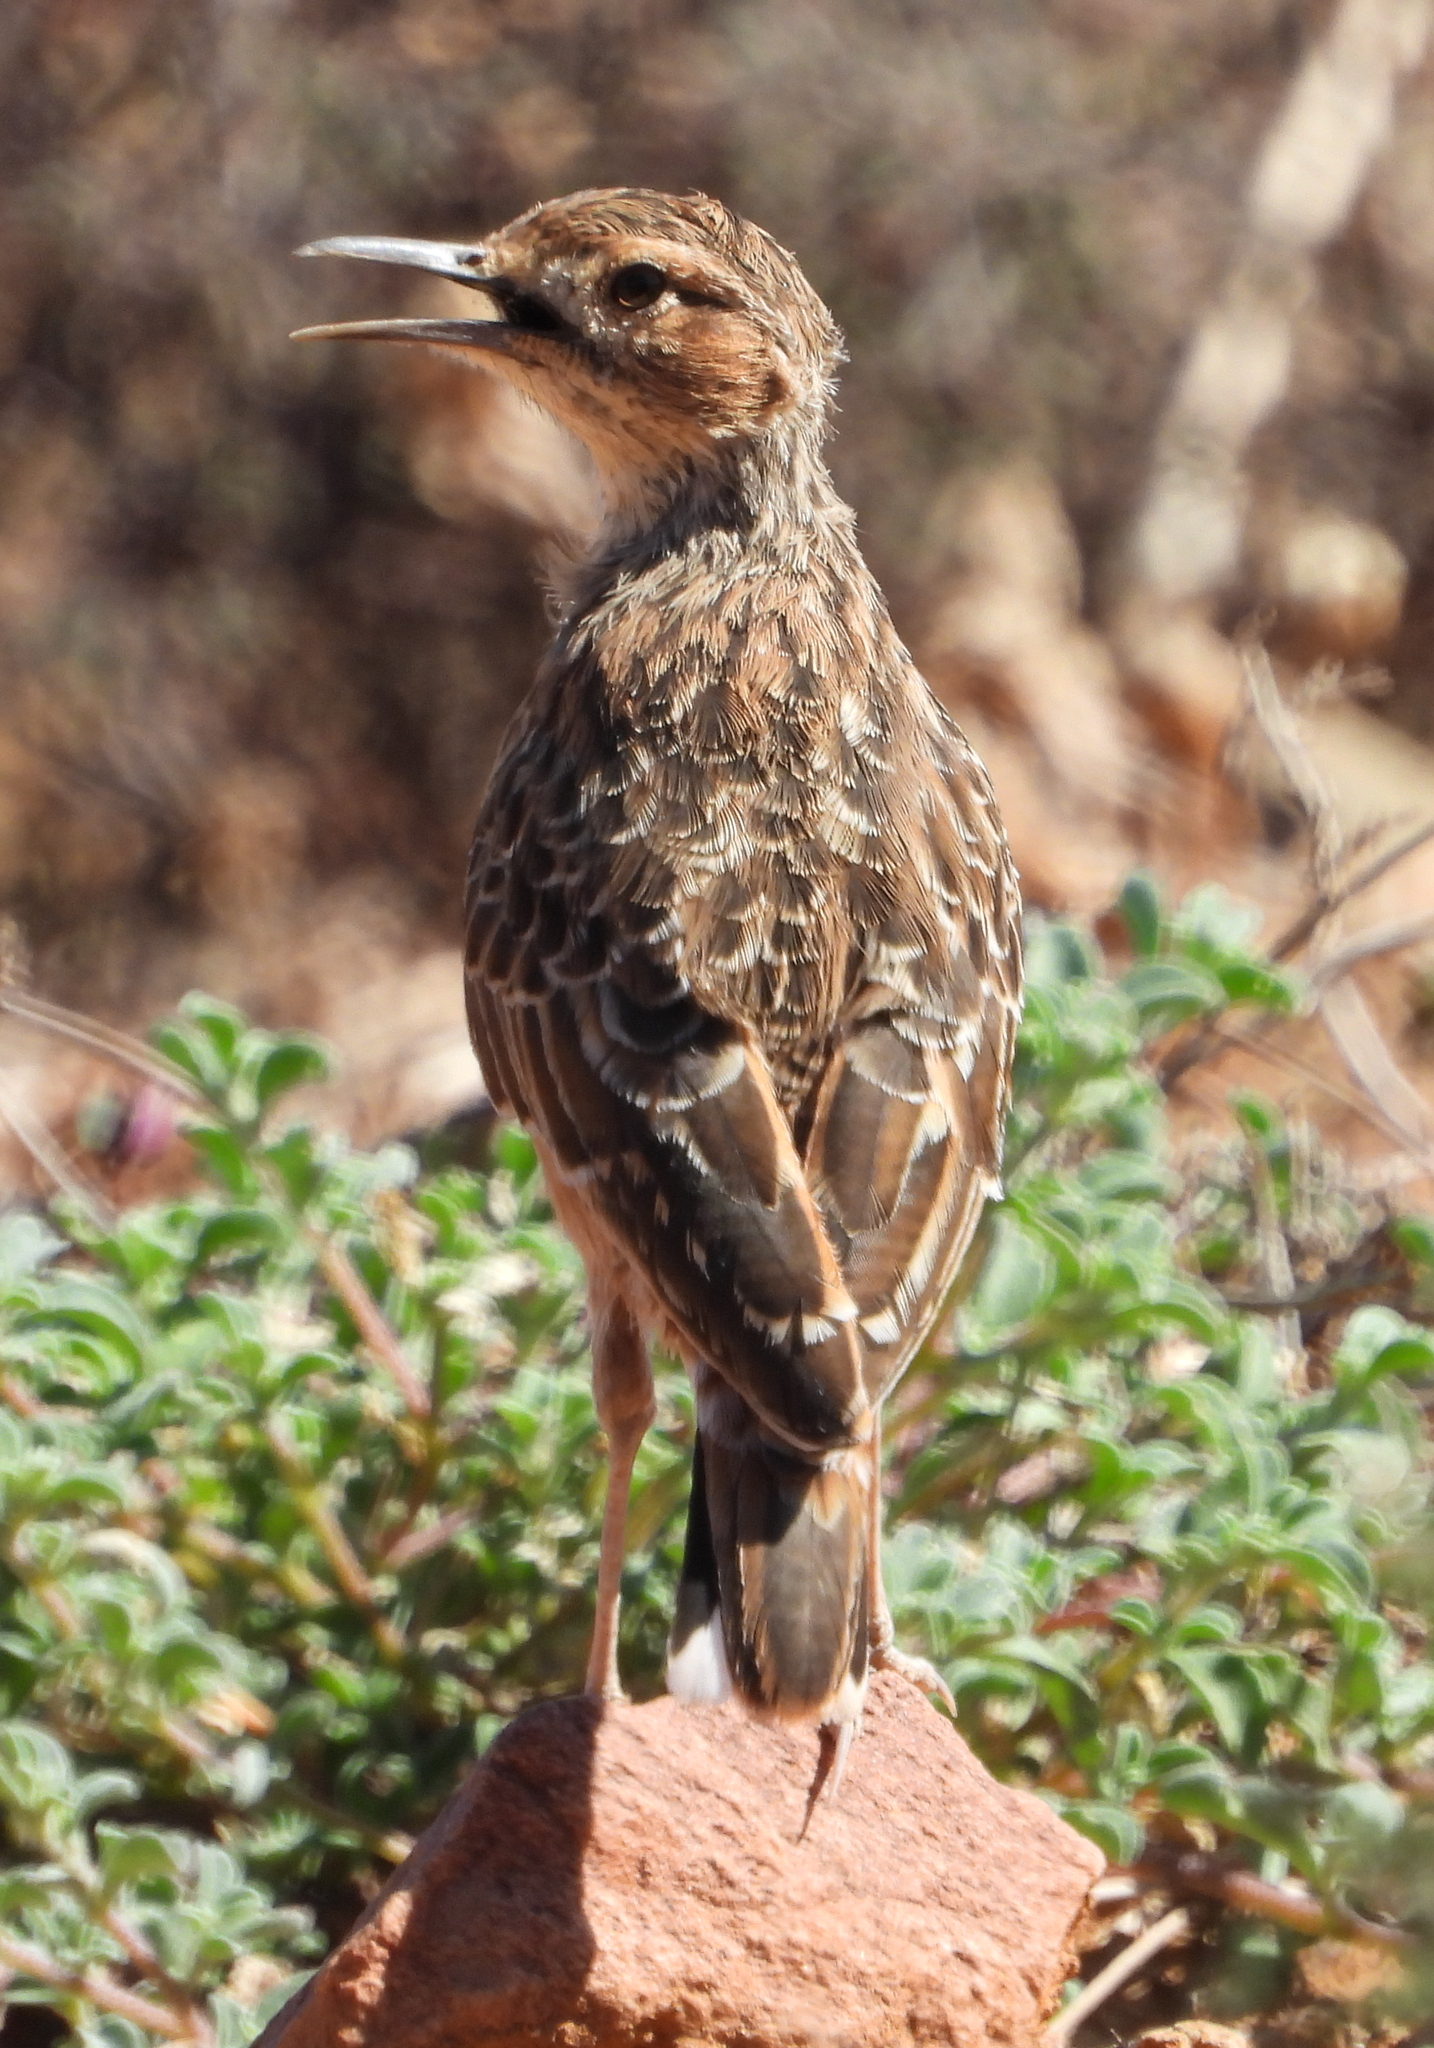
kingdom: Animalia
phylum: Chordata
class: Aves
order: Passeriformes
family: Alaudidae
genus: Chersomanes
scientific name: Chersomanes albofasciata
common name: Spike-heeled lark
